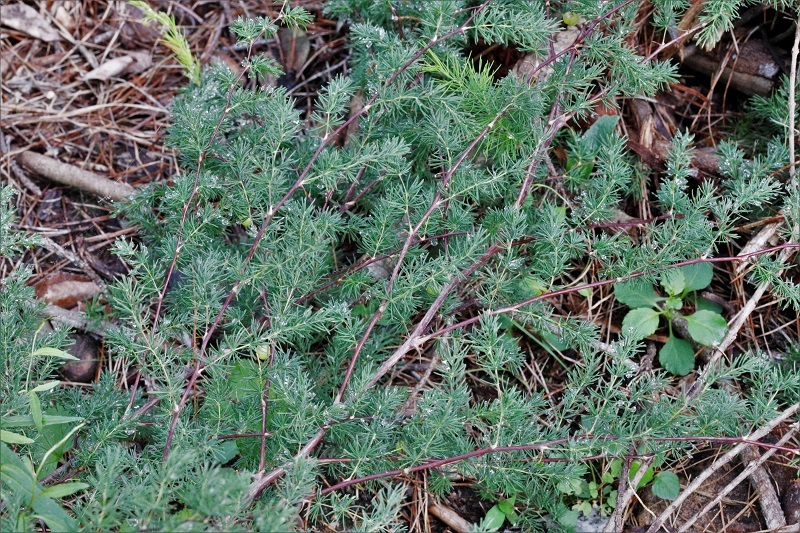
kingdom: Plantae
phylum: Tracheophyta
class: Liliopsida
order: Asparagales
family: Asparagaceae
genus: Asparagus
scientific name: Asparagus rubicundus
